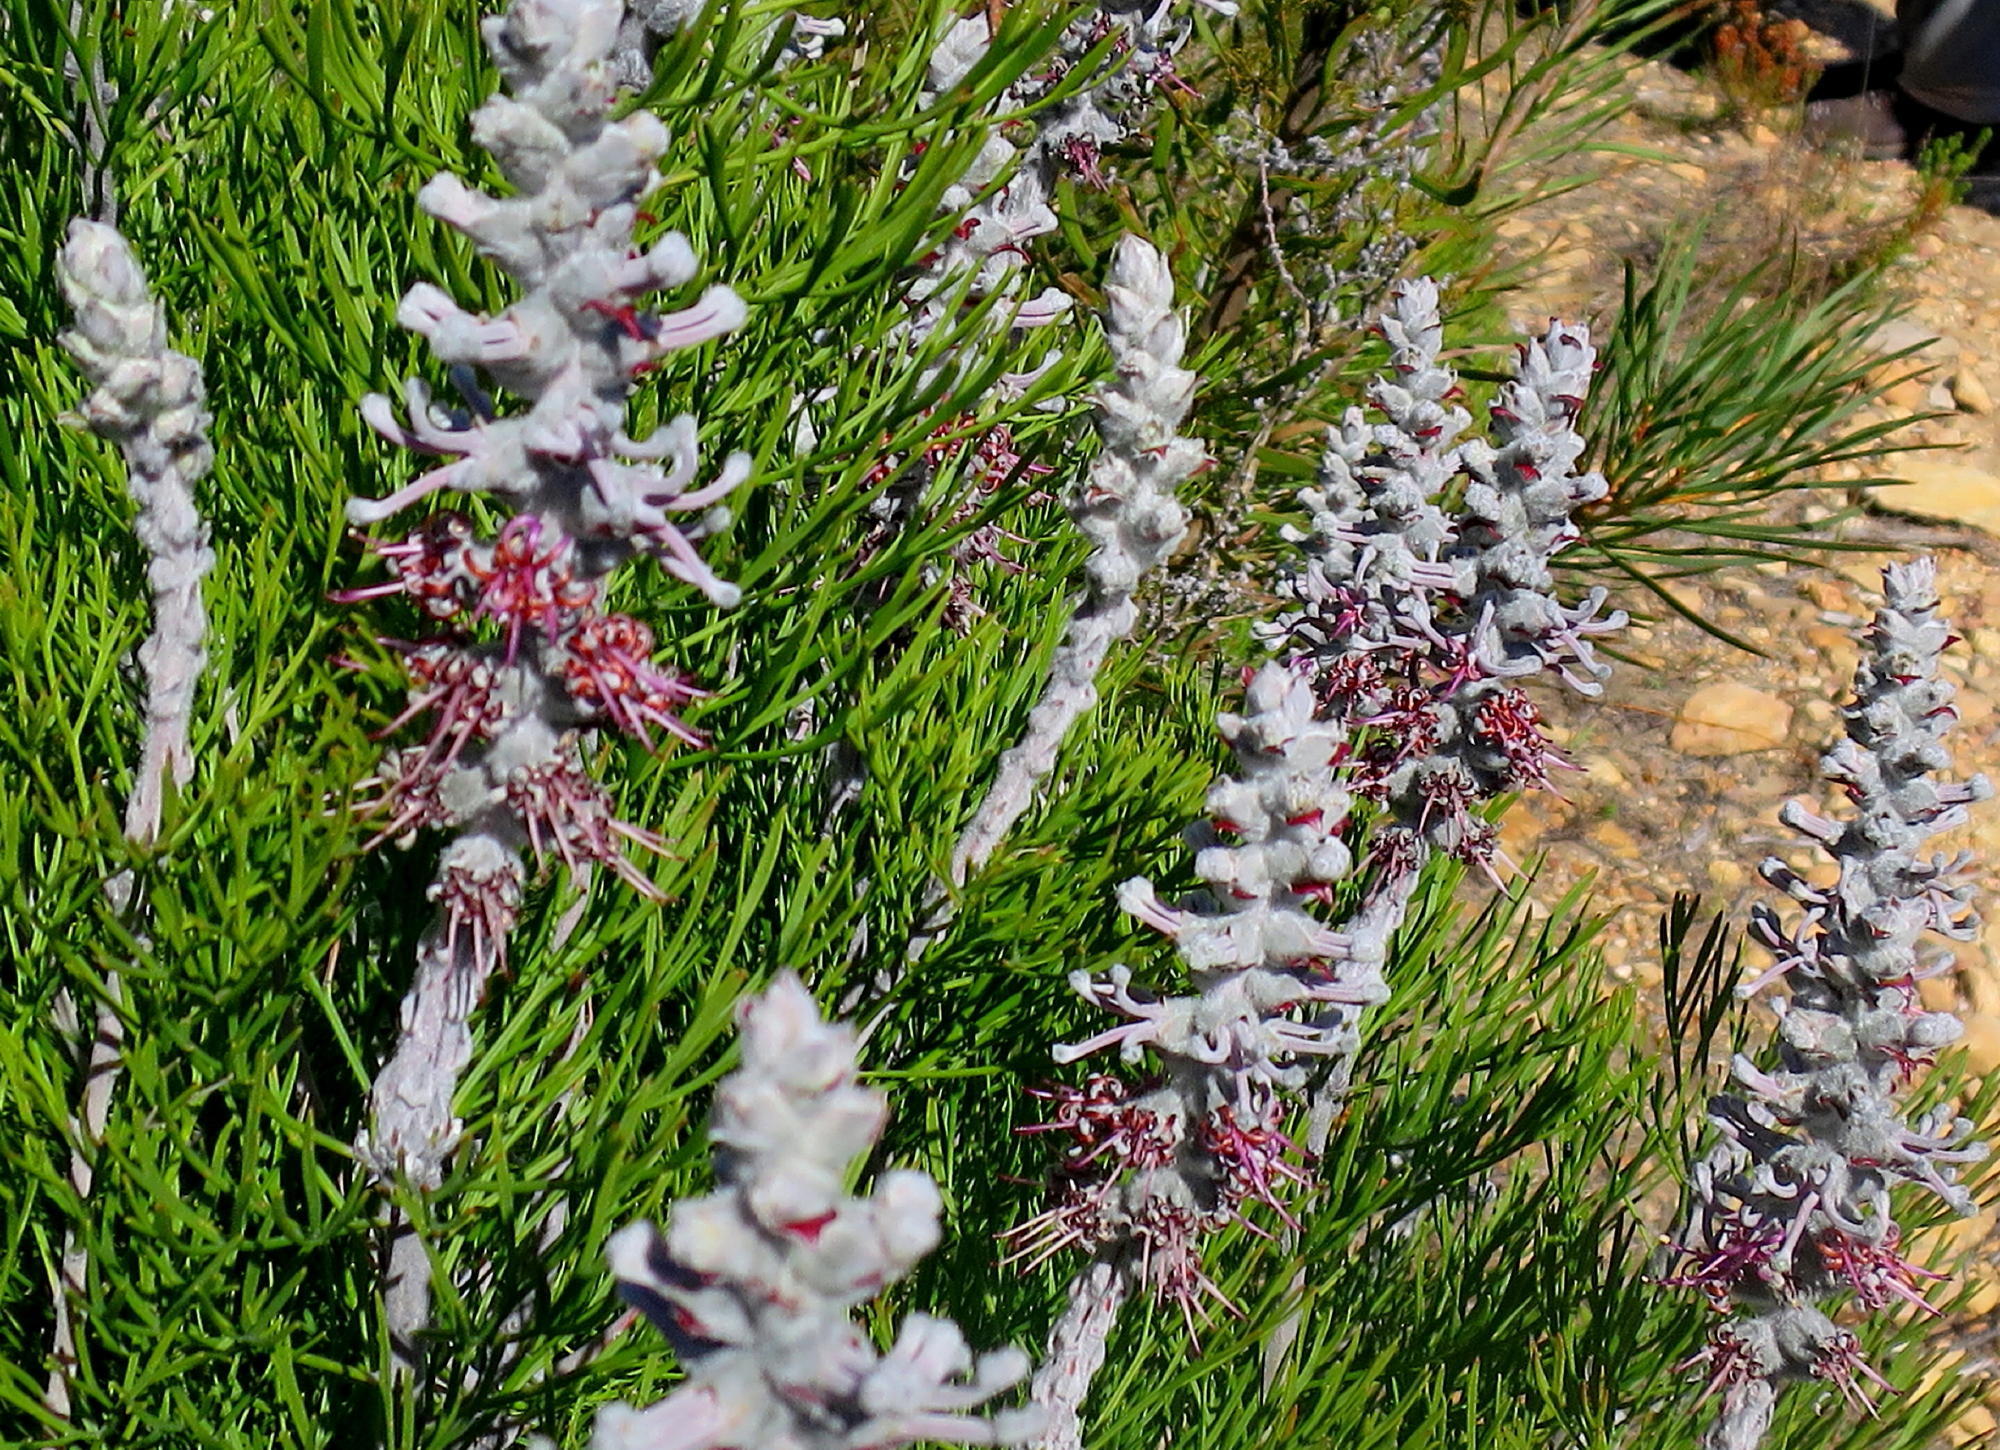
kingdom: Plantae
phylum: Tracheophyta
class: Magnoliopsida
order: Proteales
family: Proteaceae
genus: Paranomus
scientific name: Paranomus dispersus
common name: Long-head sceptre
